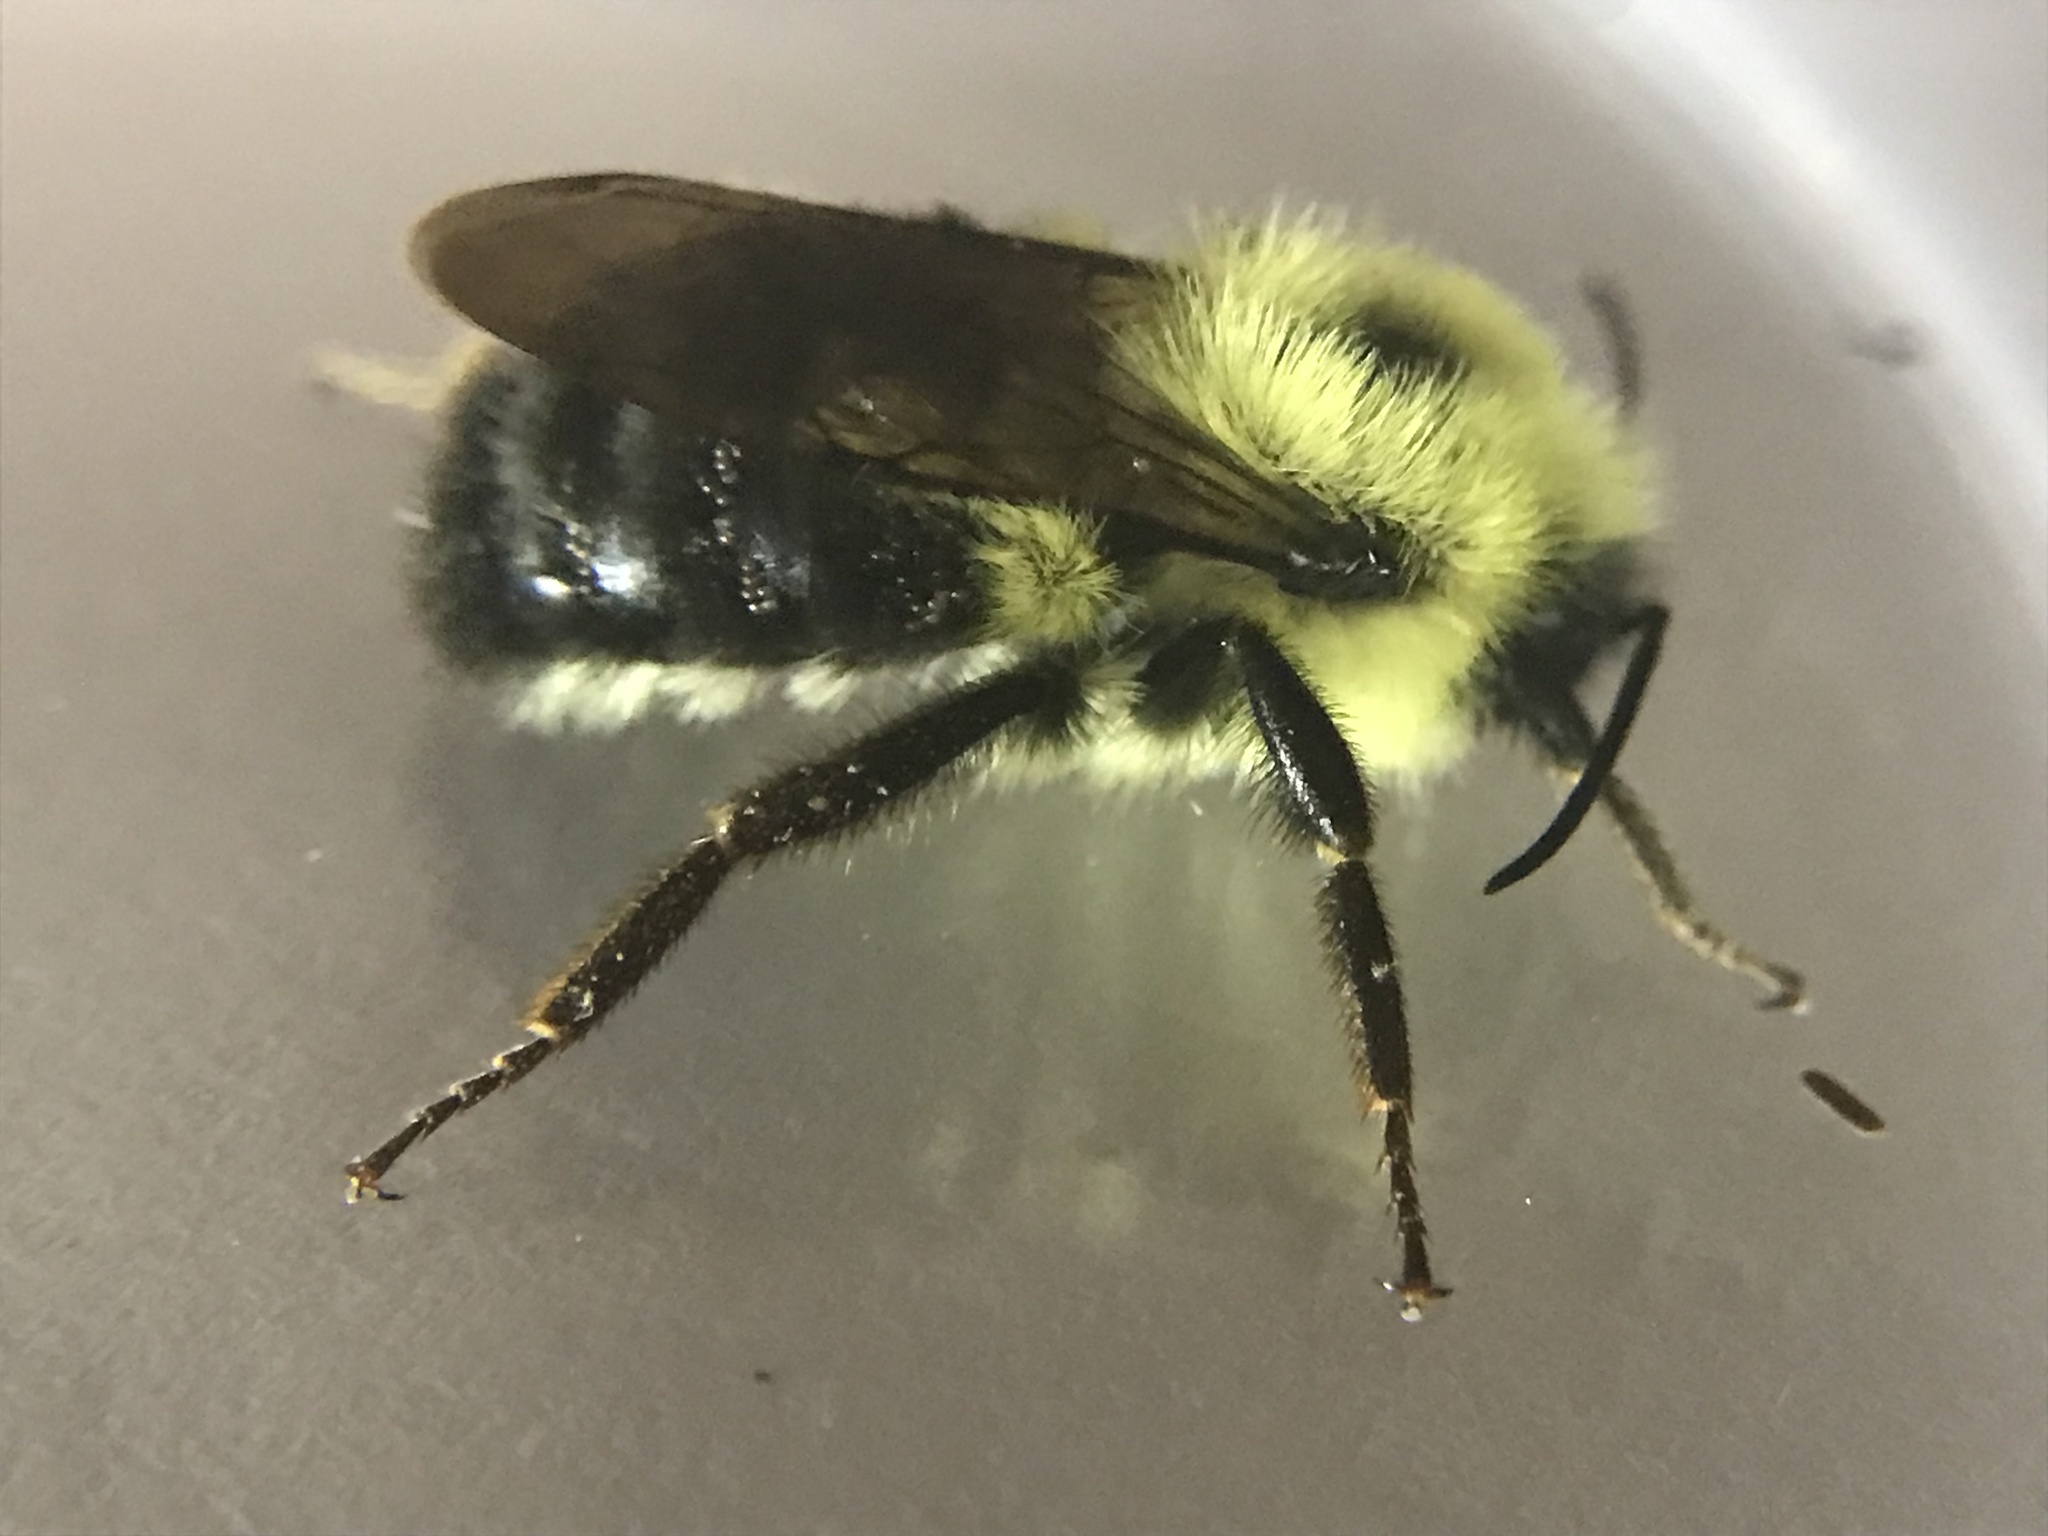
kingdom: Animalia
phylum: Arthropoda
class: Insecta
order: Hymenoptera
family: Apidae
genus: Bombus
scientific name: Bombus bimaculatus
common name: Two-spotted bumble bee
